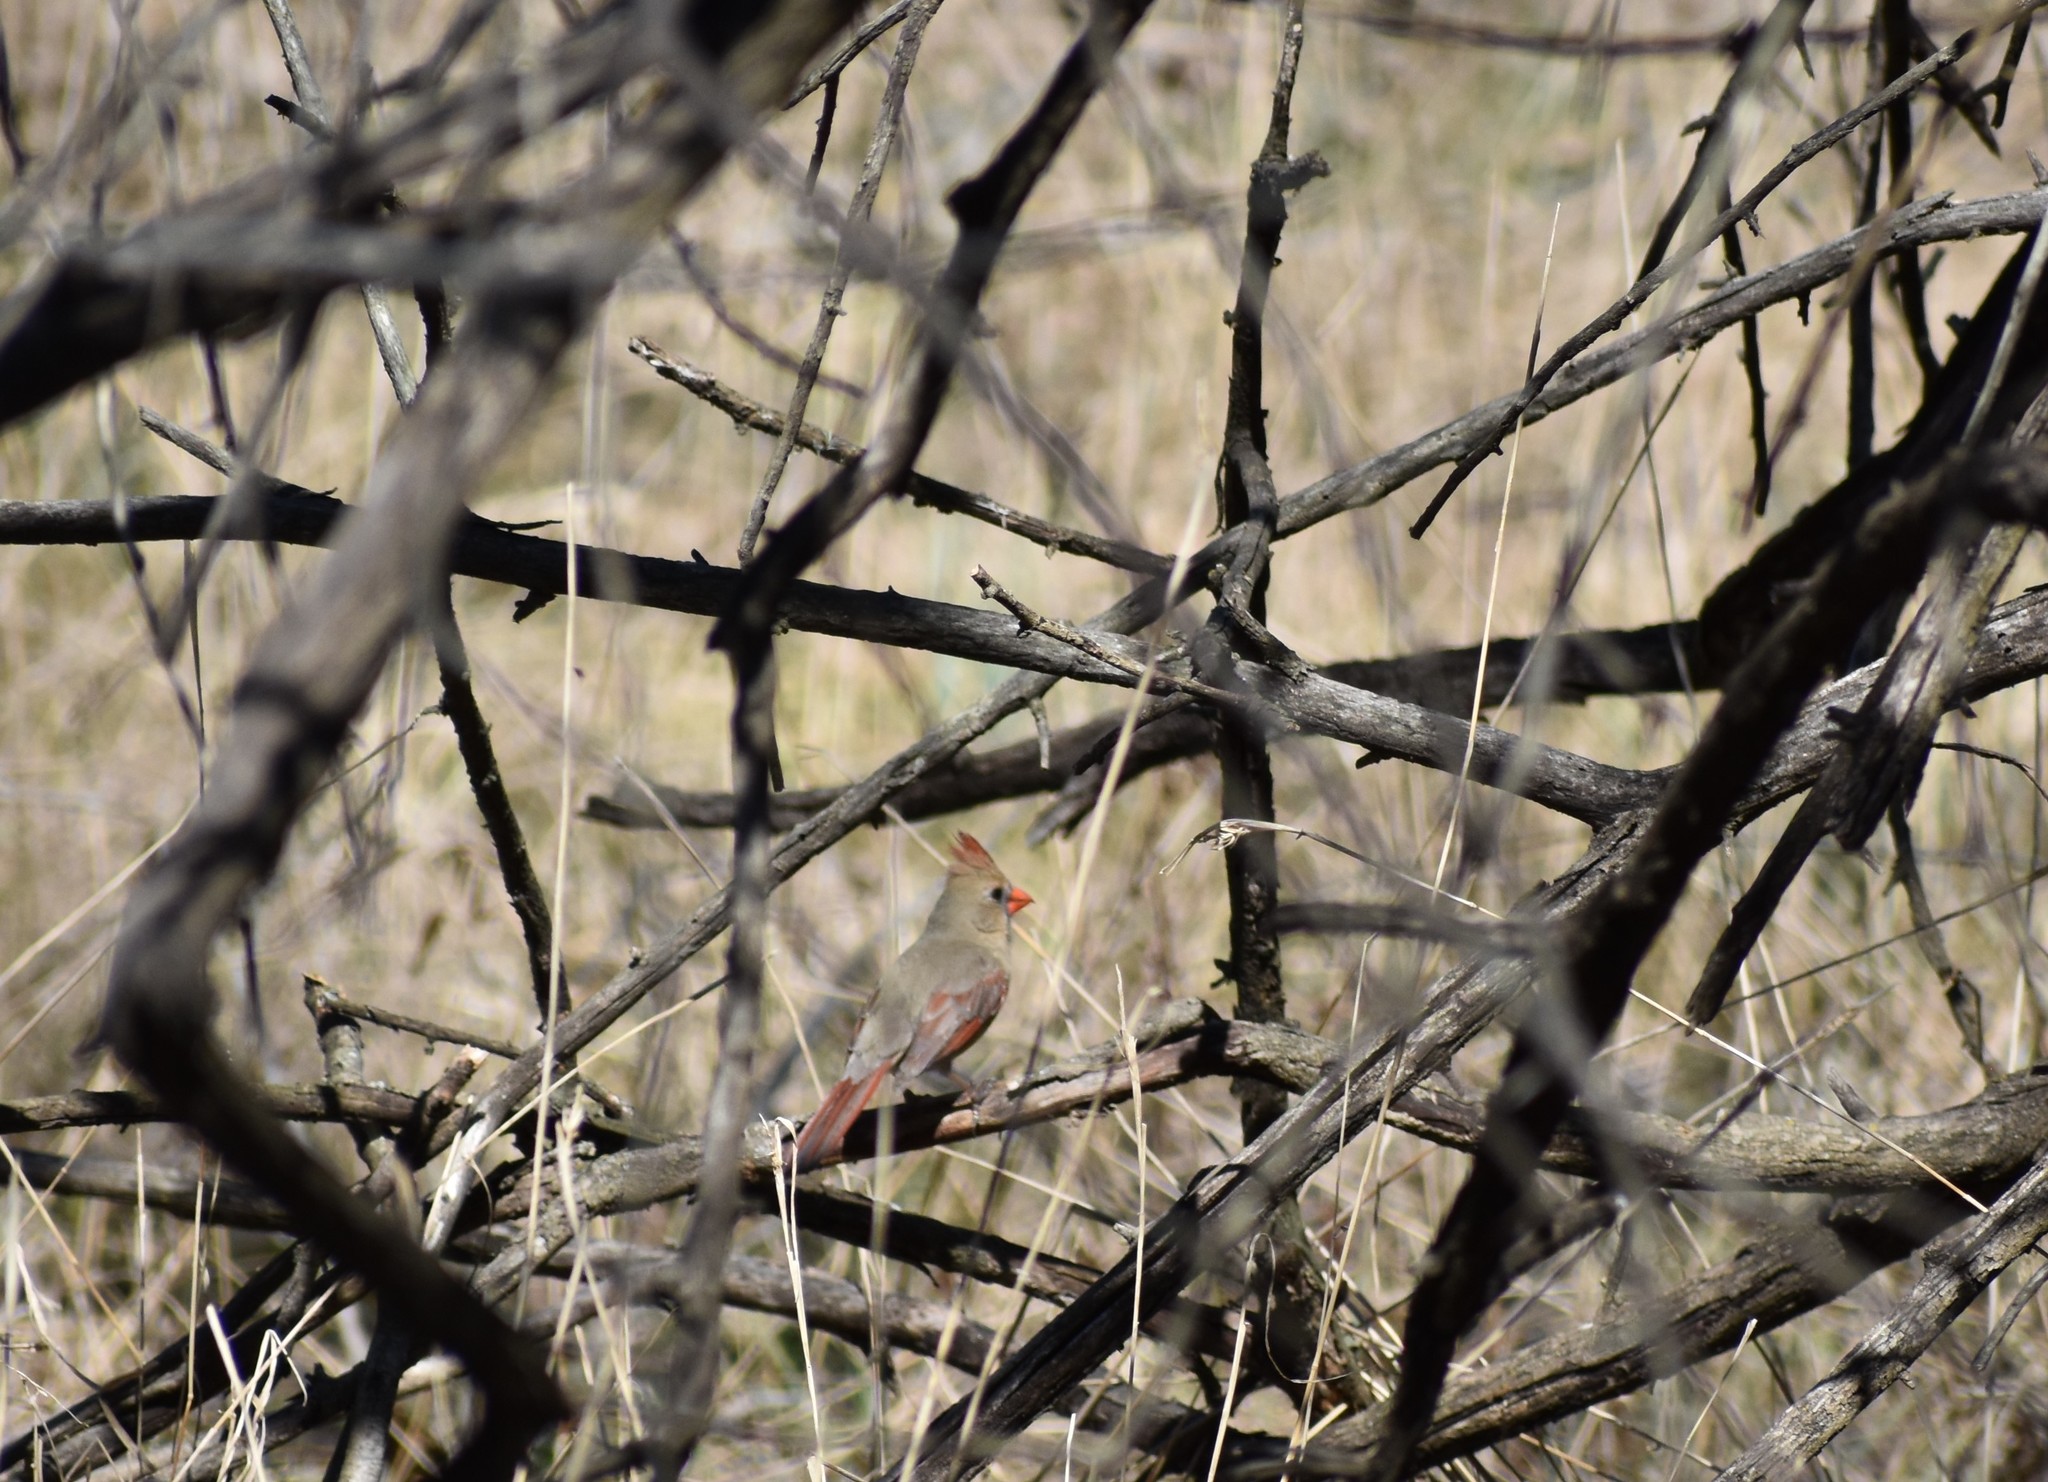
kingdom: Animalia
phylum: Chordata
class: Aves
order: Passeriformes
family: Cardinalidae
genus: Cardinalis
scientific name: Cardinalis cardinalis
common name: Northern cardinal
